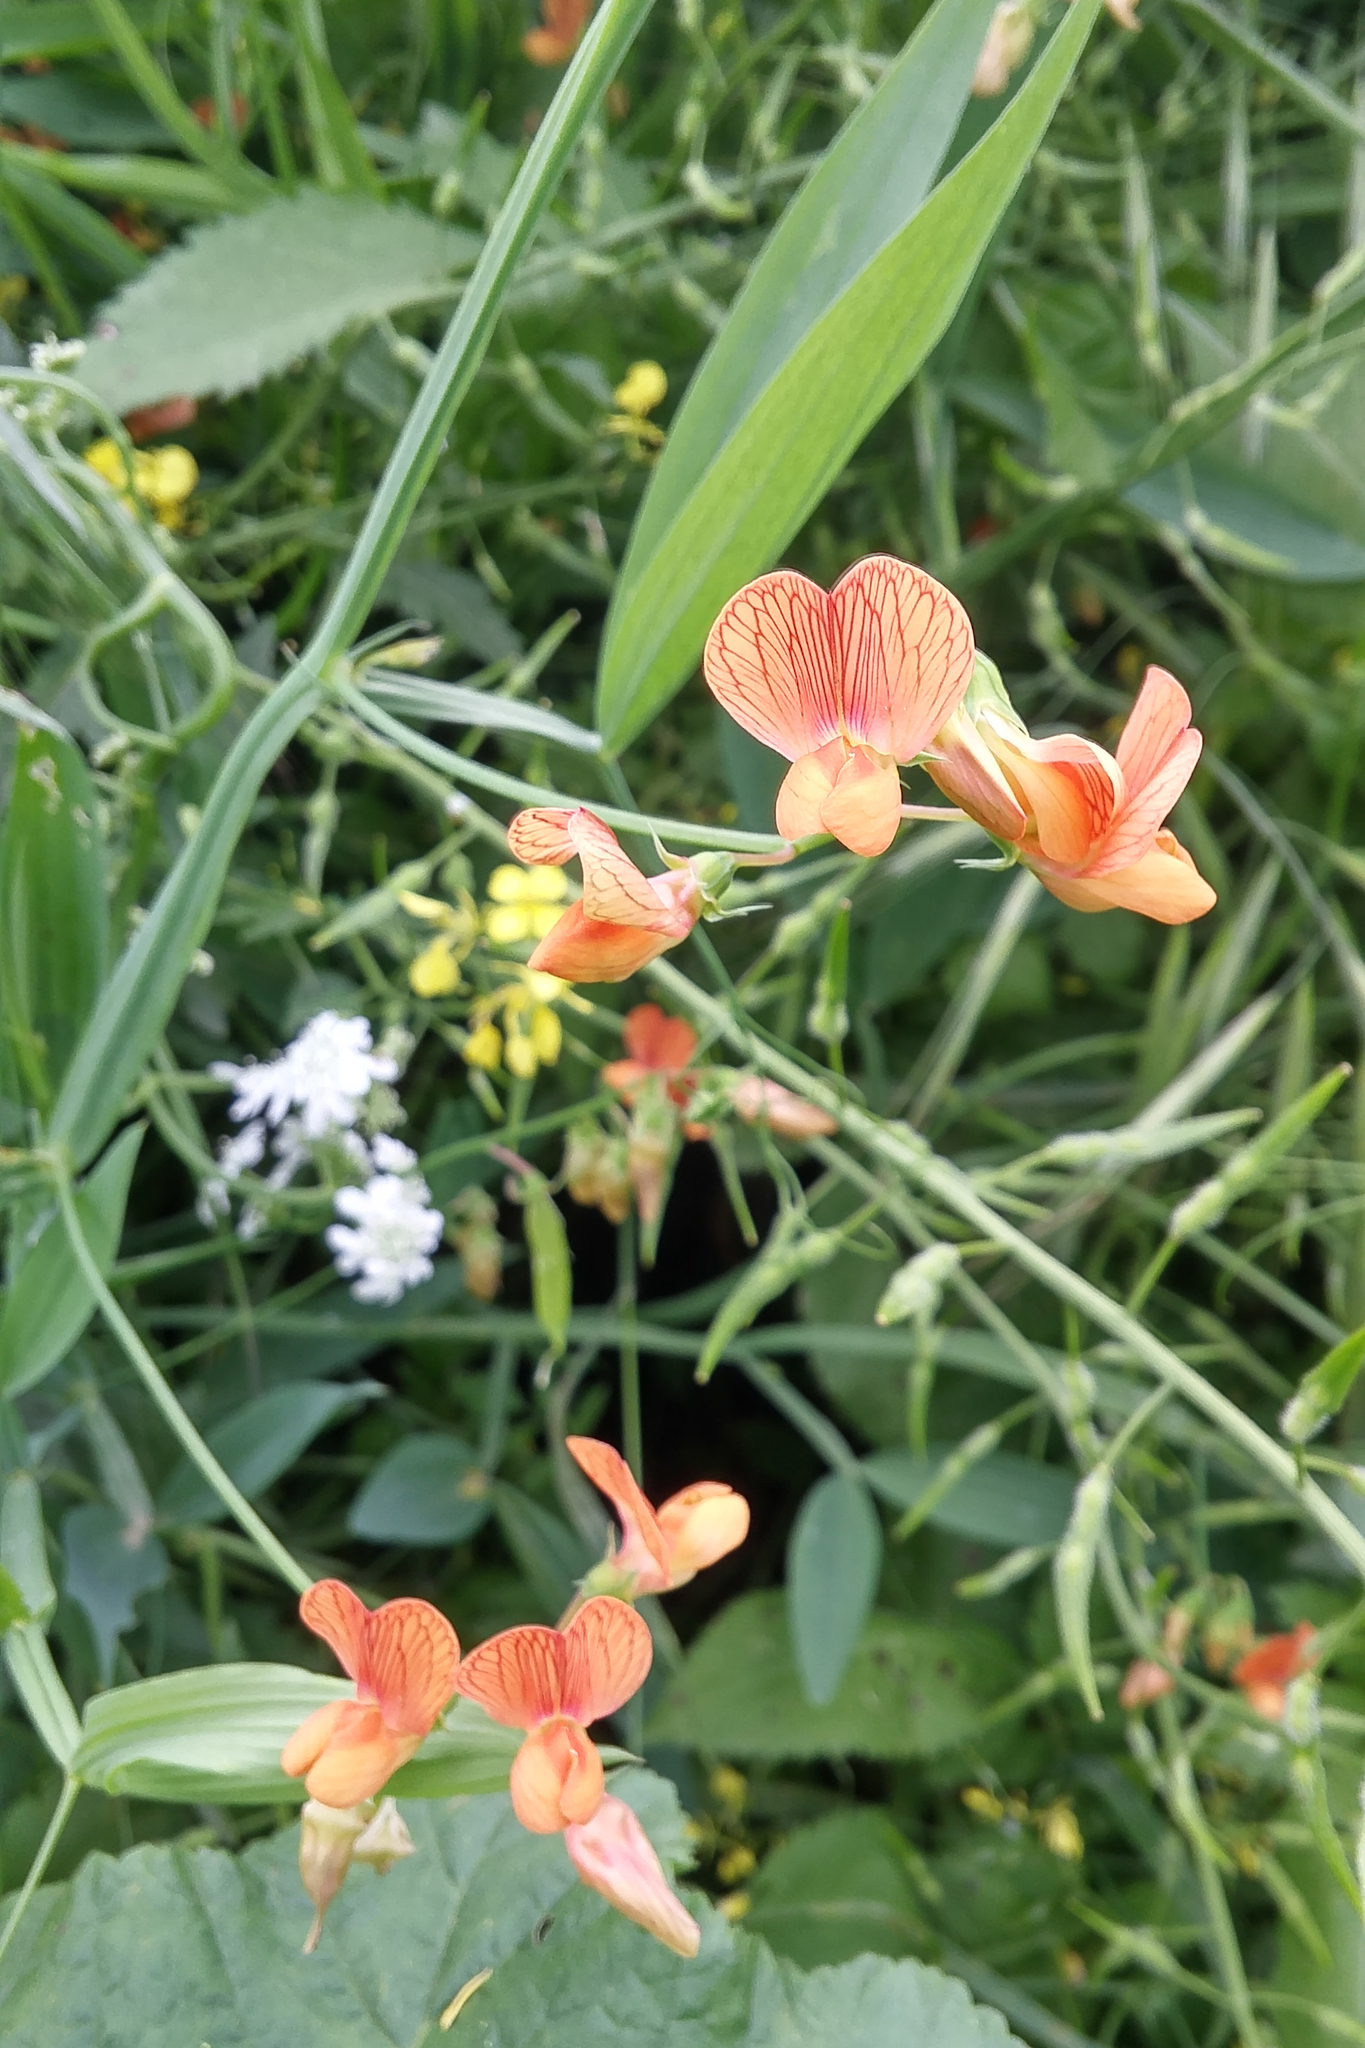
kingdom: Plantae
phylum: Tracheophyta
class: Magnoliopsida
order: Fabales
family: Fabaceae
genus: Lathyrus
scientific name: Lathyrus hierosolymitanus
